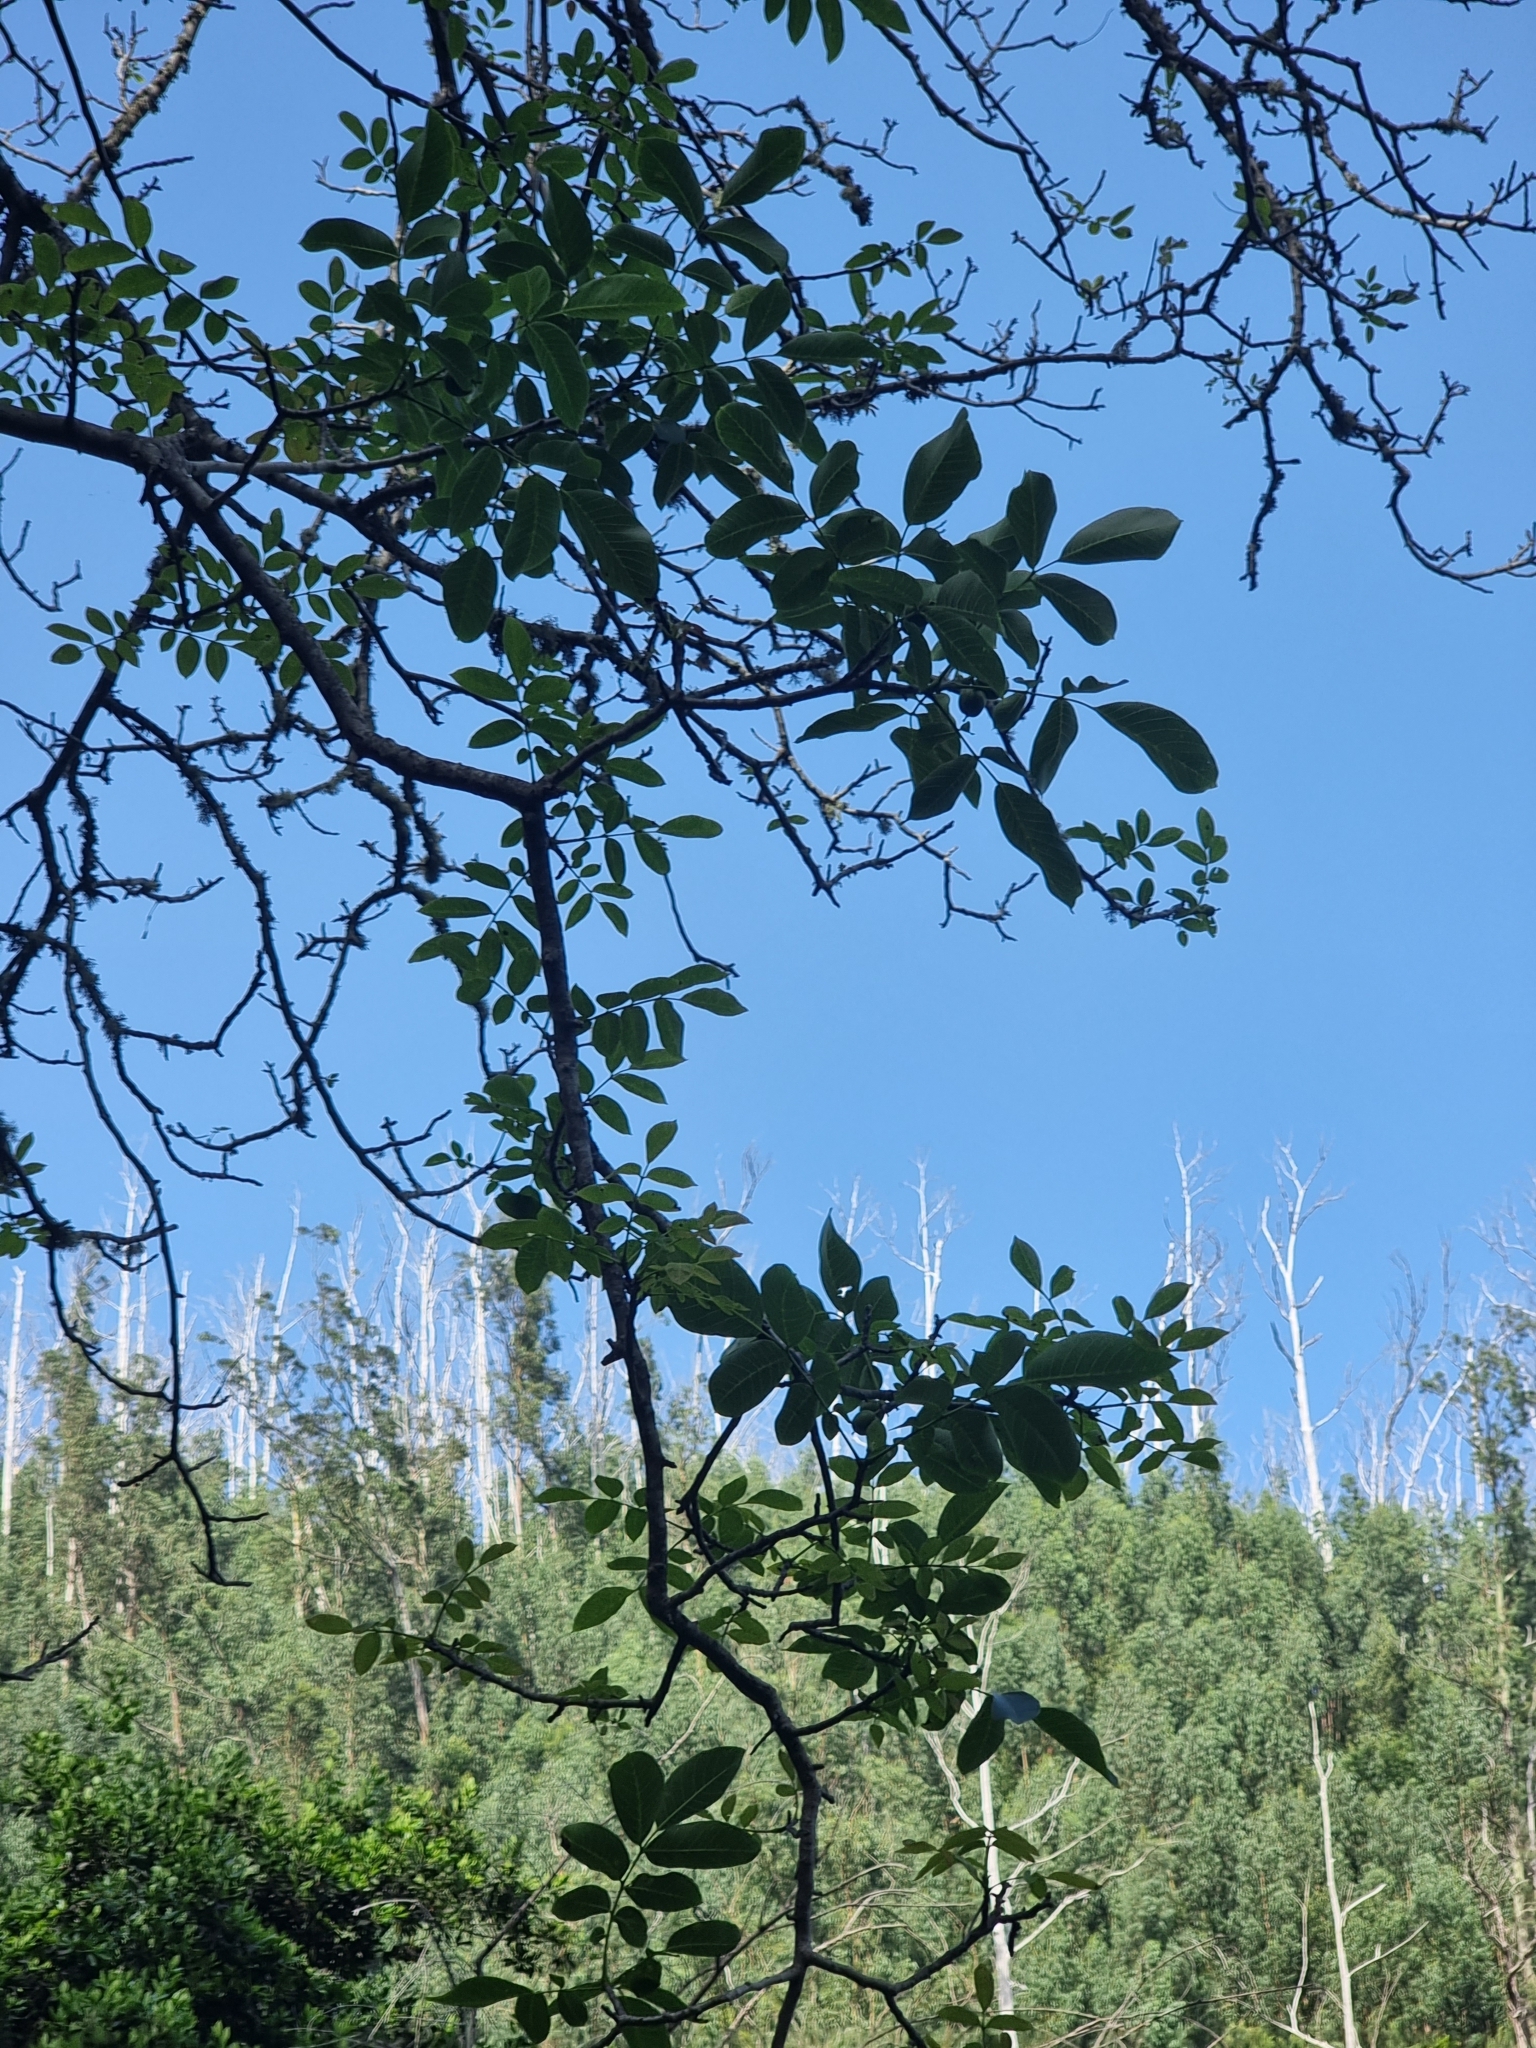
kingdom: Plantae
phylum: Tracheophyta
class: Magnoliopsida
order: Fagales
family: Juglandaceae
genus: Juglans
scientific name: Juglans regia
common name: Walnut
